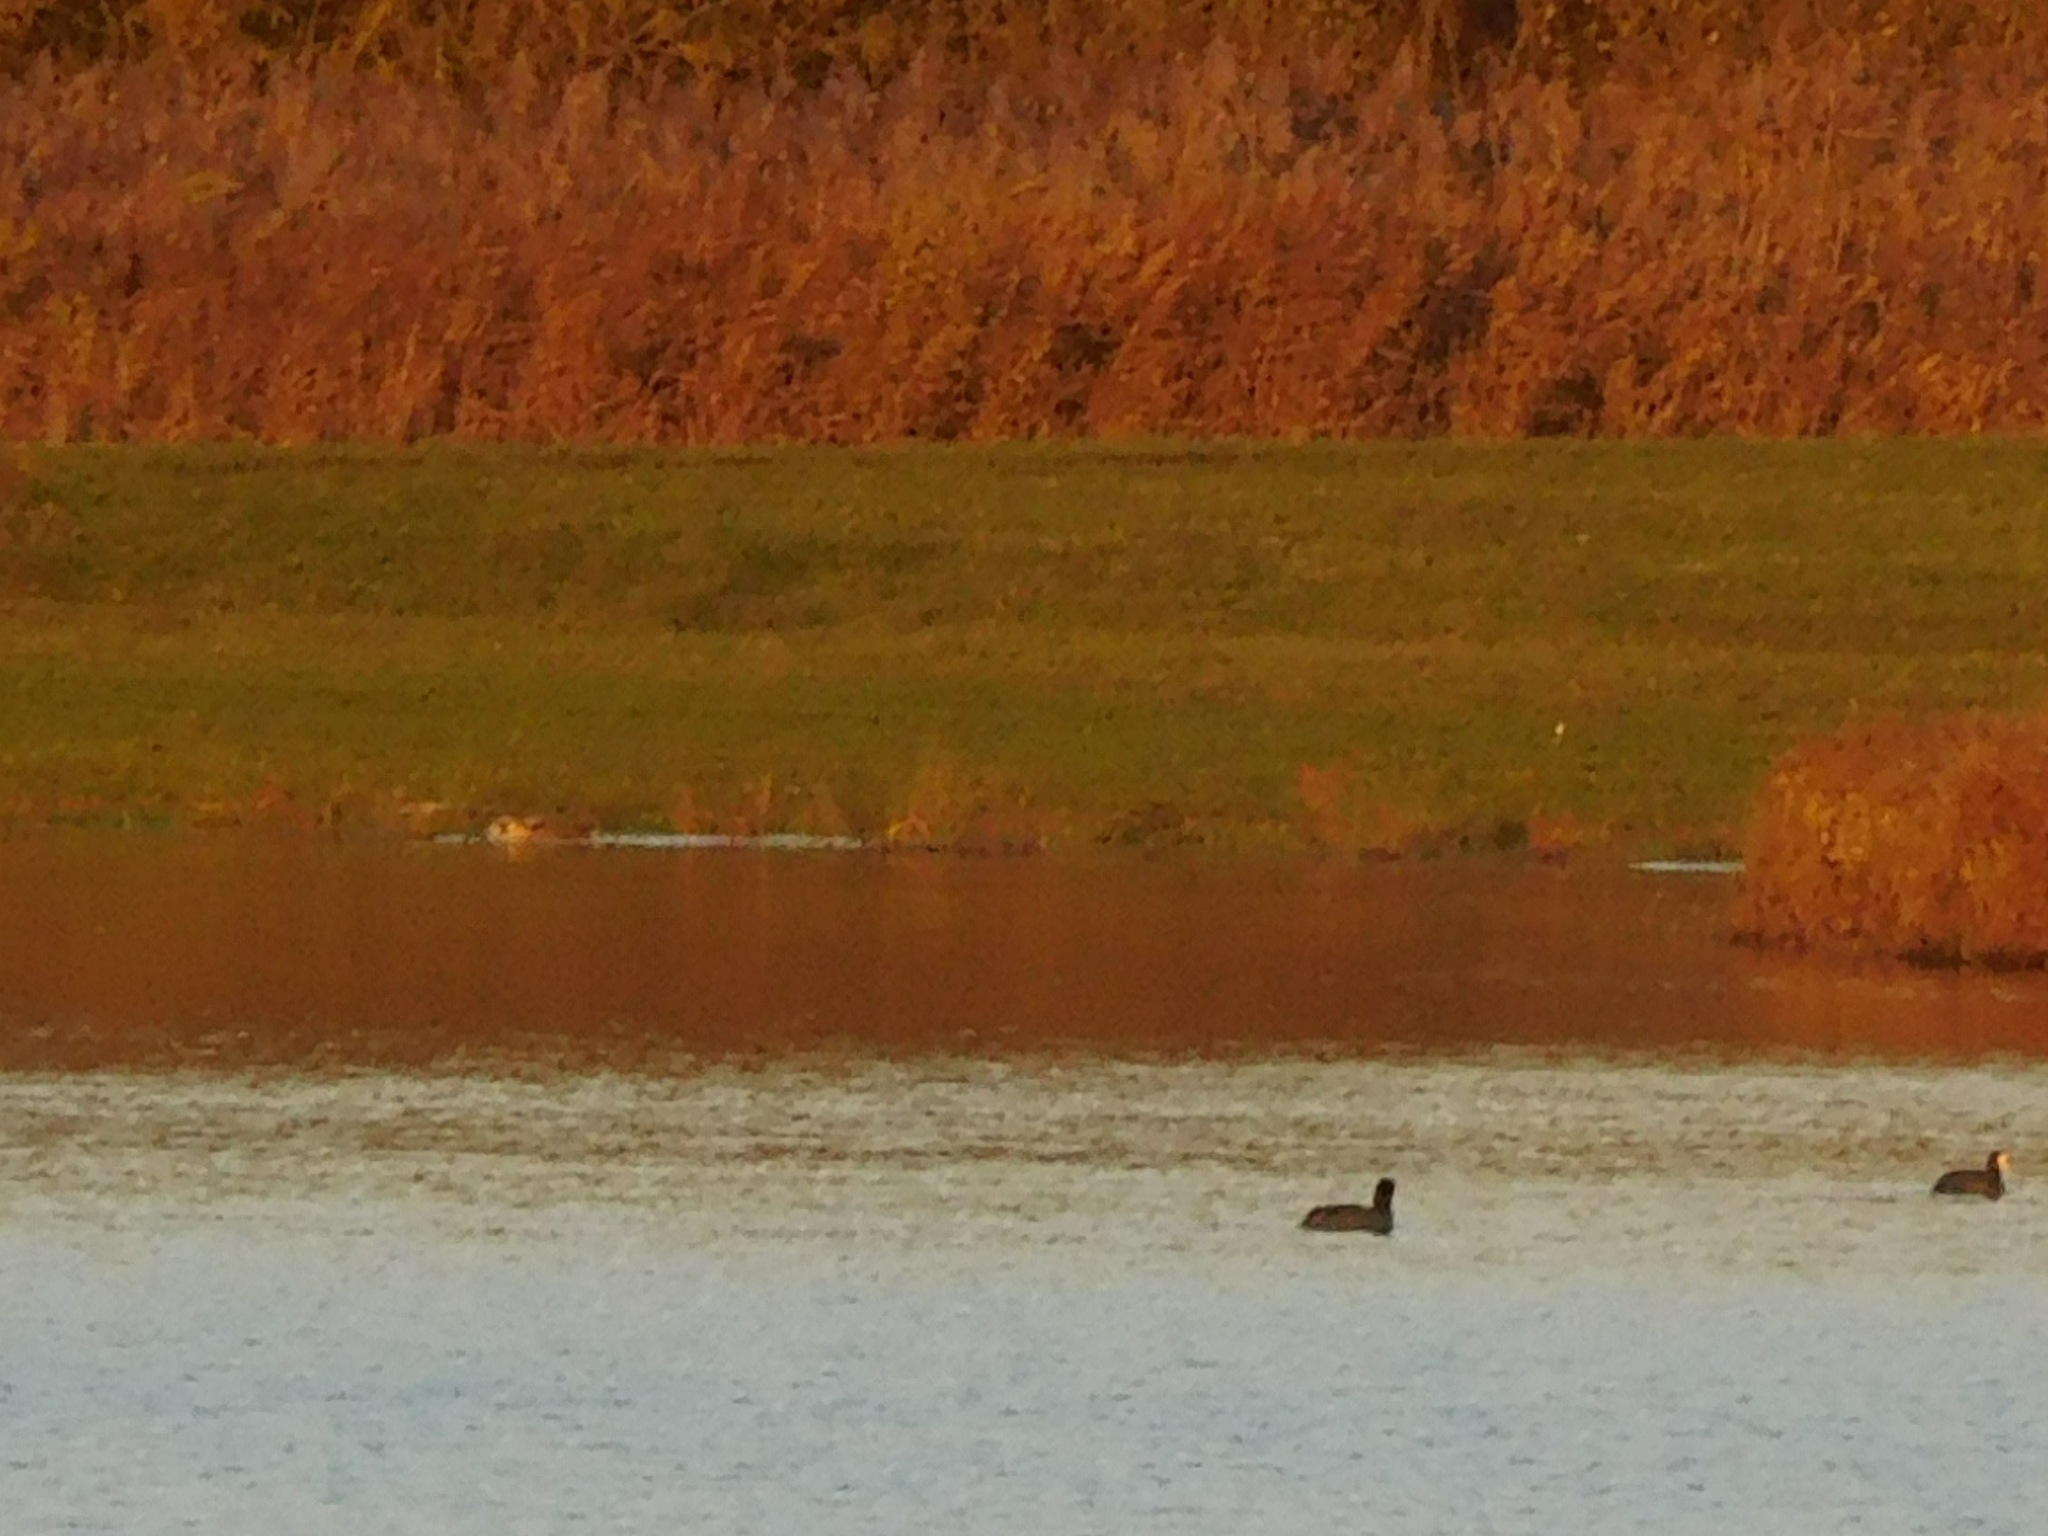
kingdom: Animalia
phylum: Chordata
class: Aves
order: Gruiformes
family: Rallidae
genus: Fulica
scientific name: Fulica atra
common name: Eurasian coot
